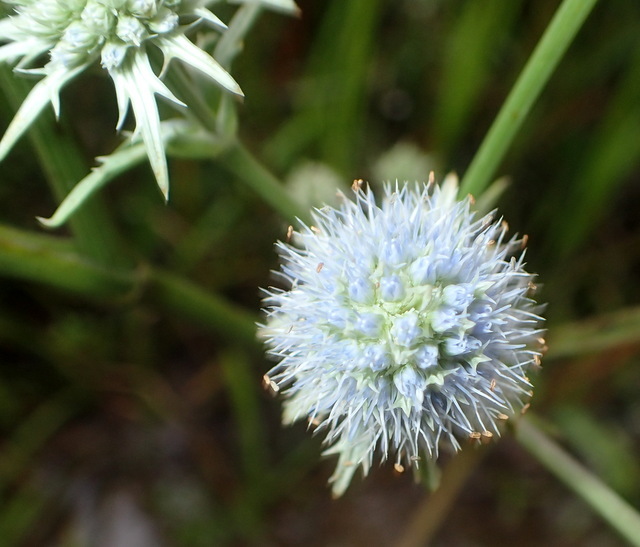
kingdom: Plantae
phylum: Tracheophyta
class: Magnoliopsida
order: Apiales
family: Apiaceae
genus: Eryngium
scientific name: Eryngium aquaticum
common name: Water eryngo
